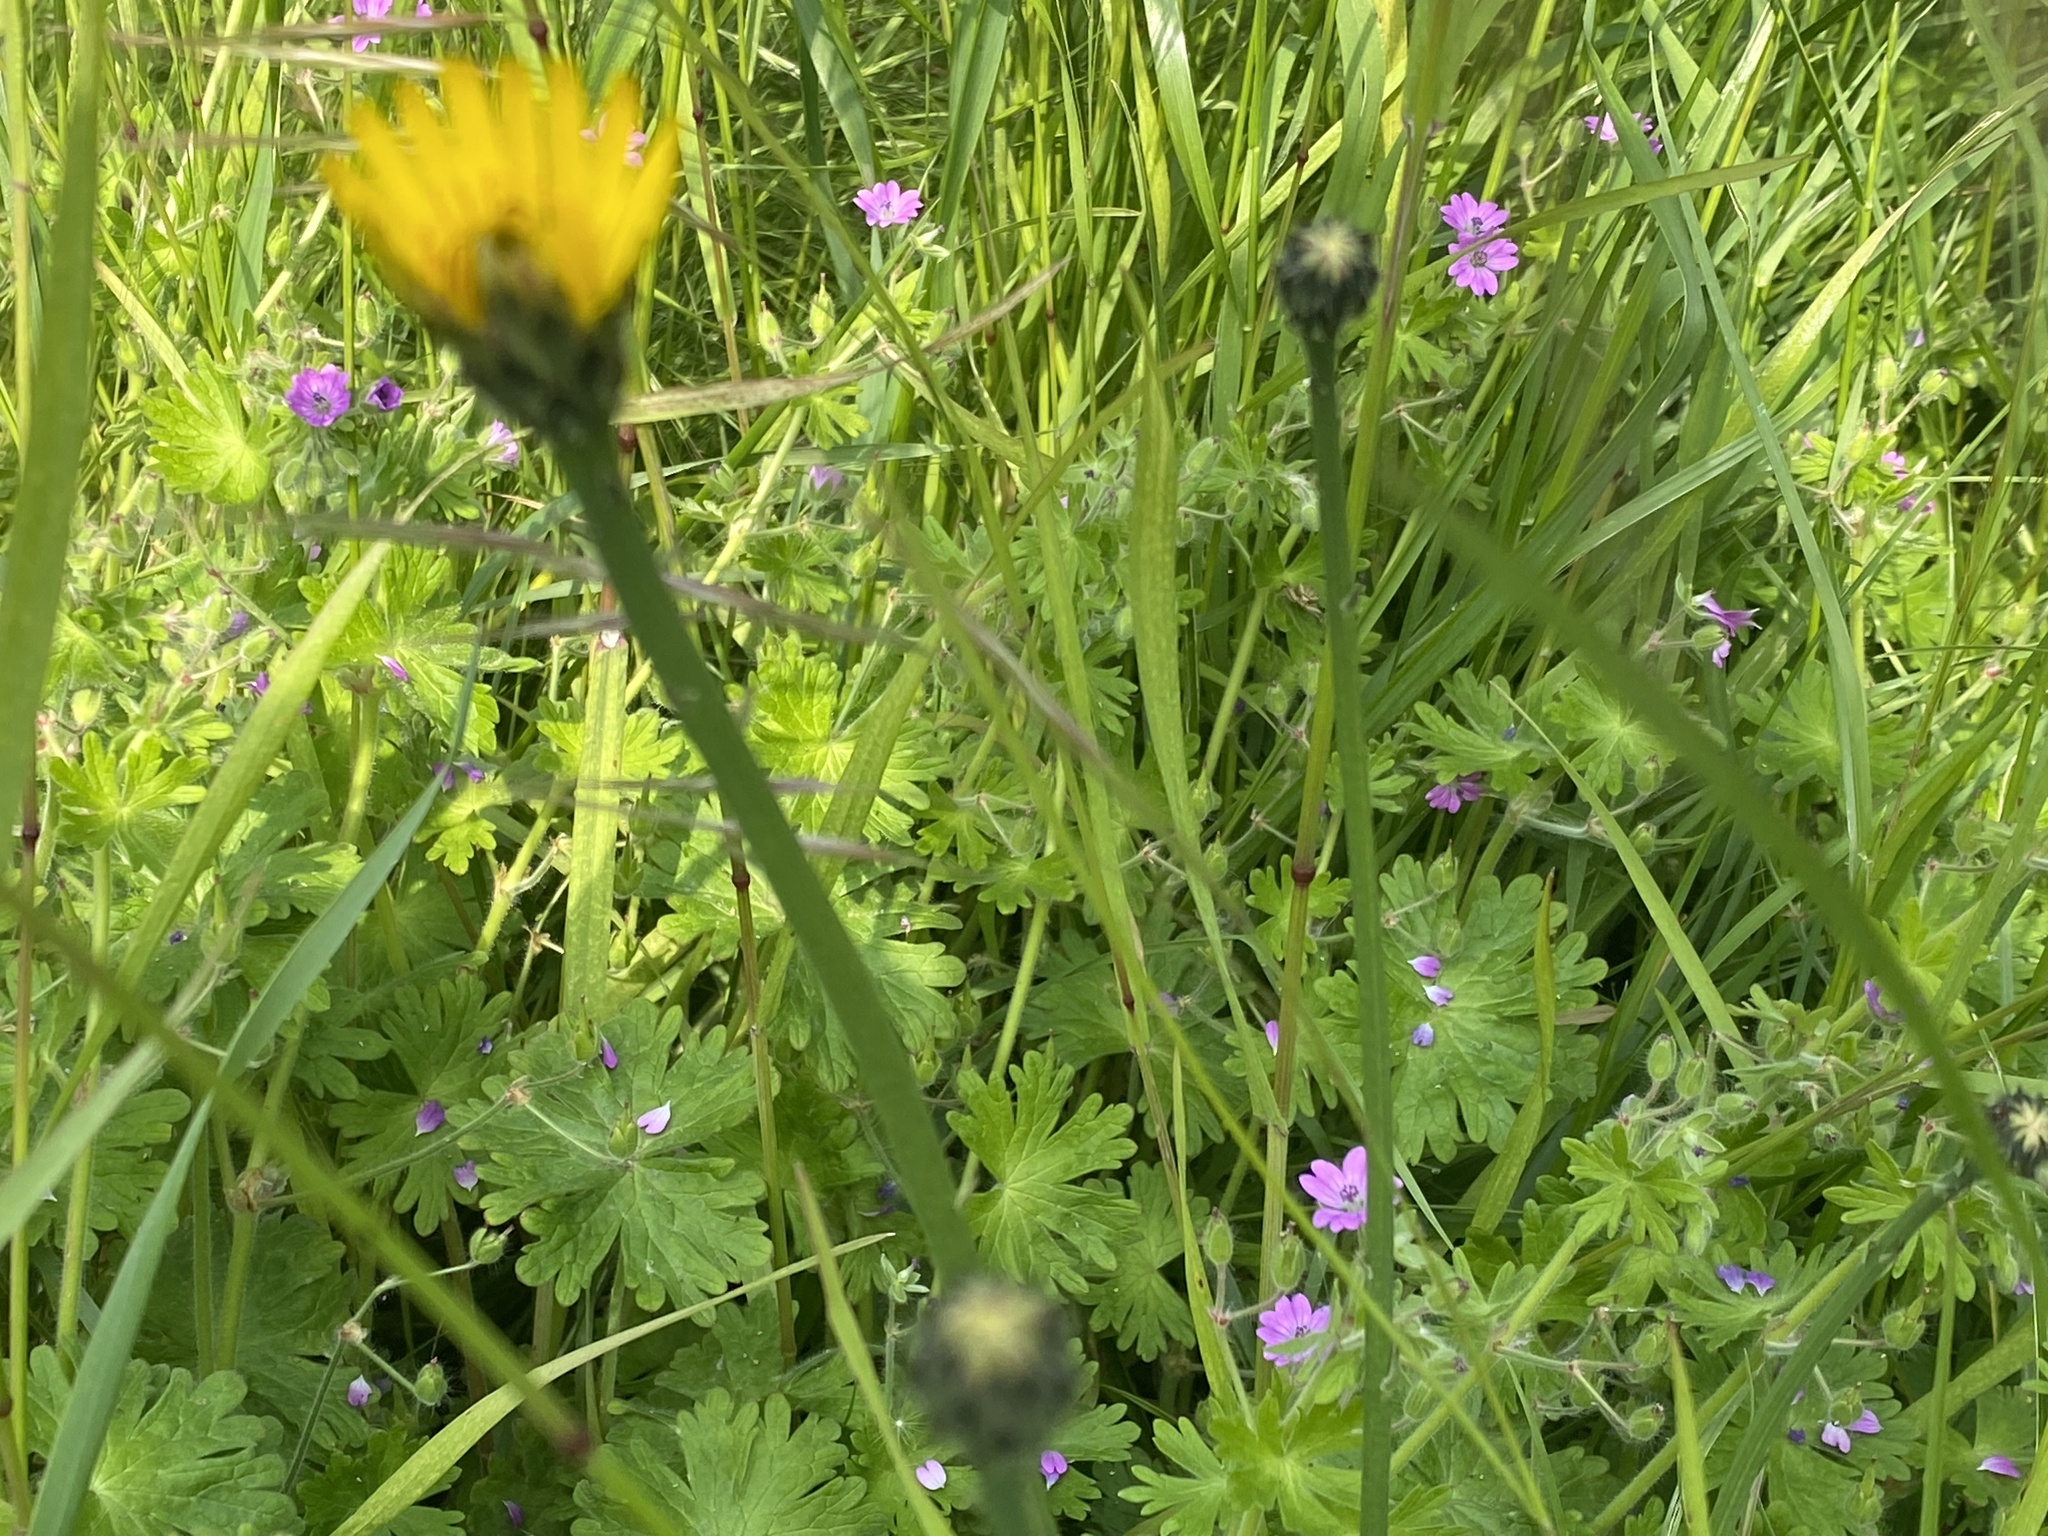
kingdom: Plantae
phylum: Tracheophyta
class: Magnoliopsida
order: Asterales
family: Asteraceae
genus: Hypochaeris
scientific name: Hypochaeris radicata
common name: Flatweed
